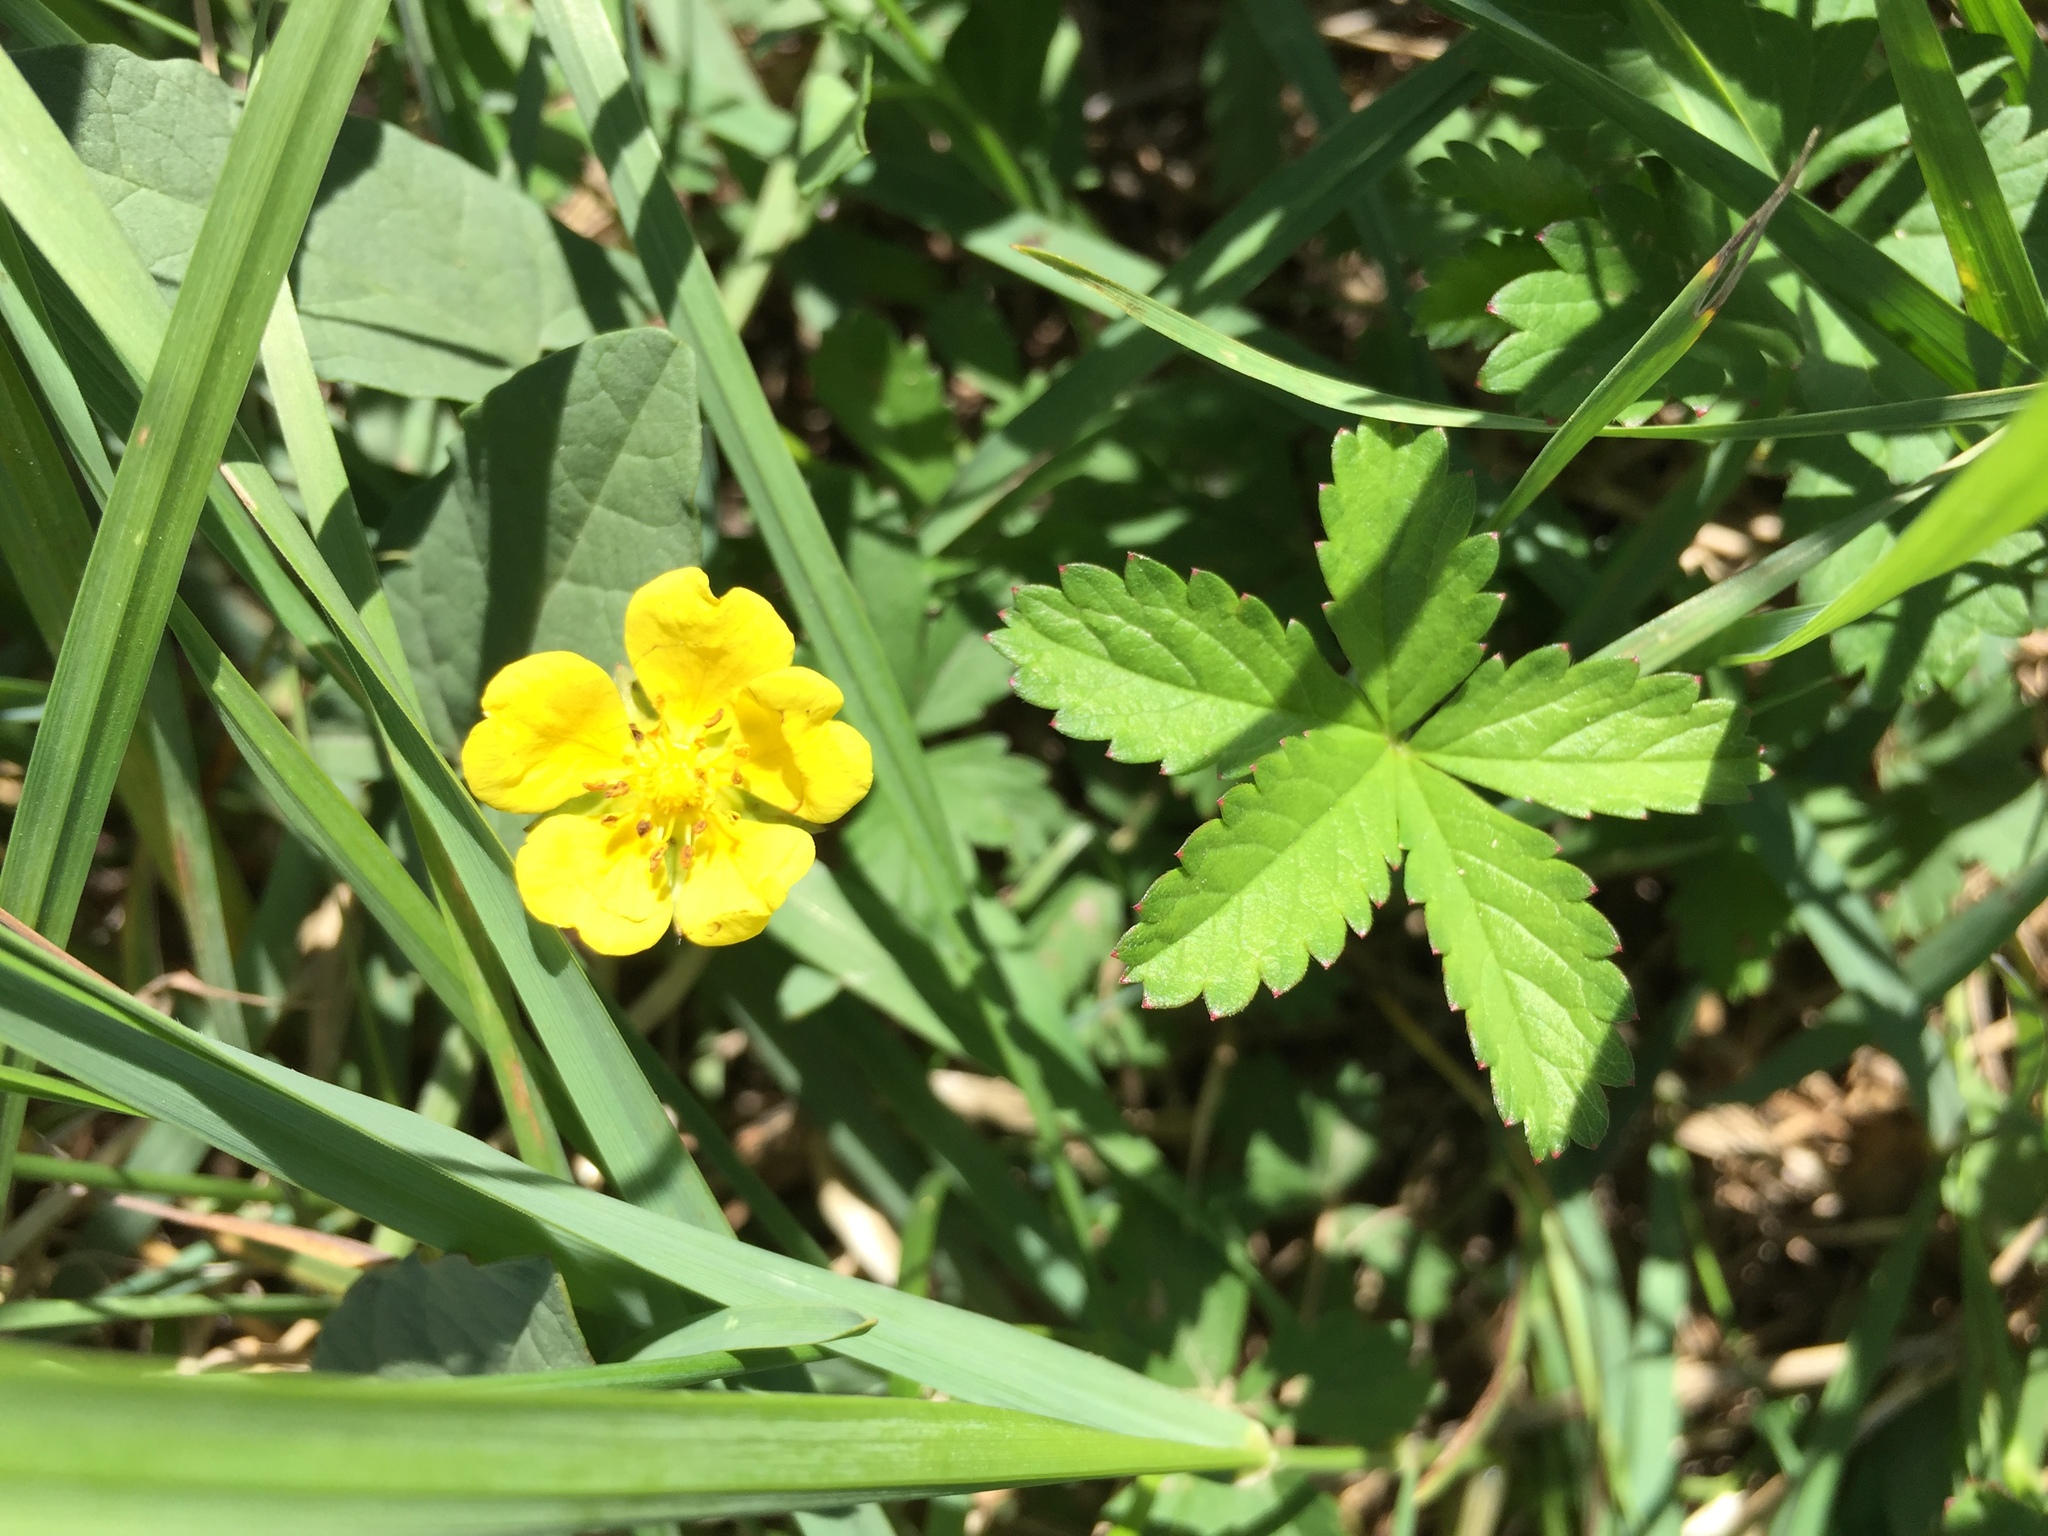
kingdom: Plantae
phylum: Tracheophyta
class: Magnoliopsida
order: Rosales
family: Rosaceae
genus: Potentilla
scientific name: Potentilla reptans
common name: Creeping cinquefoil
